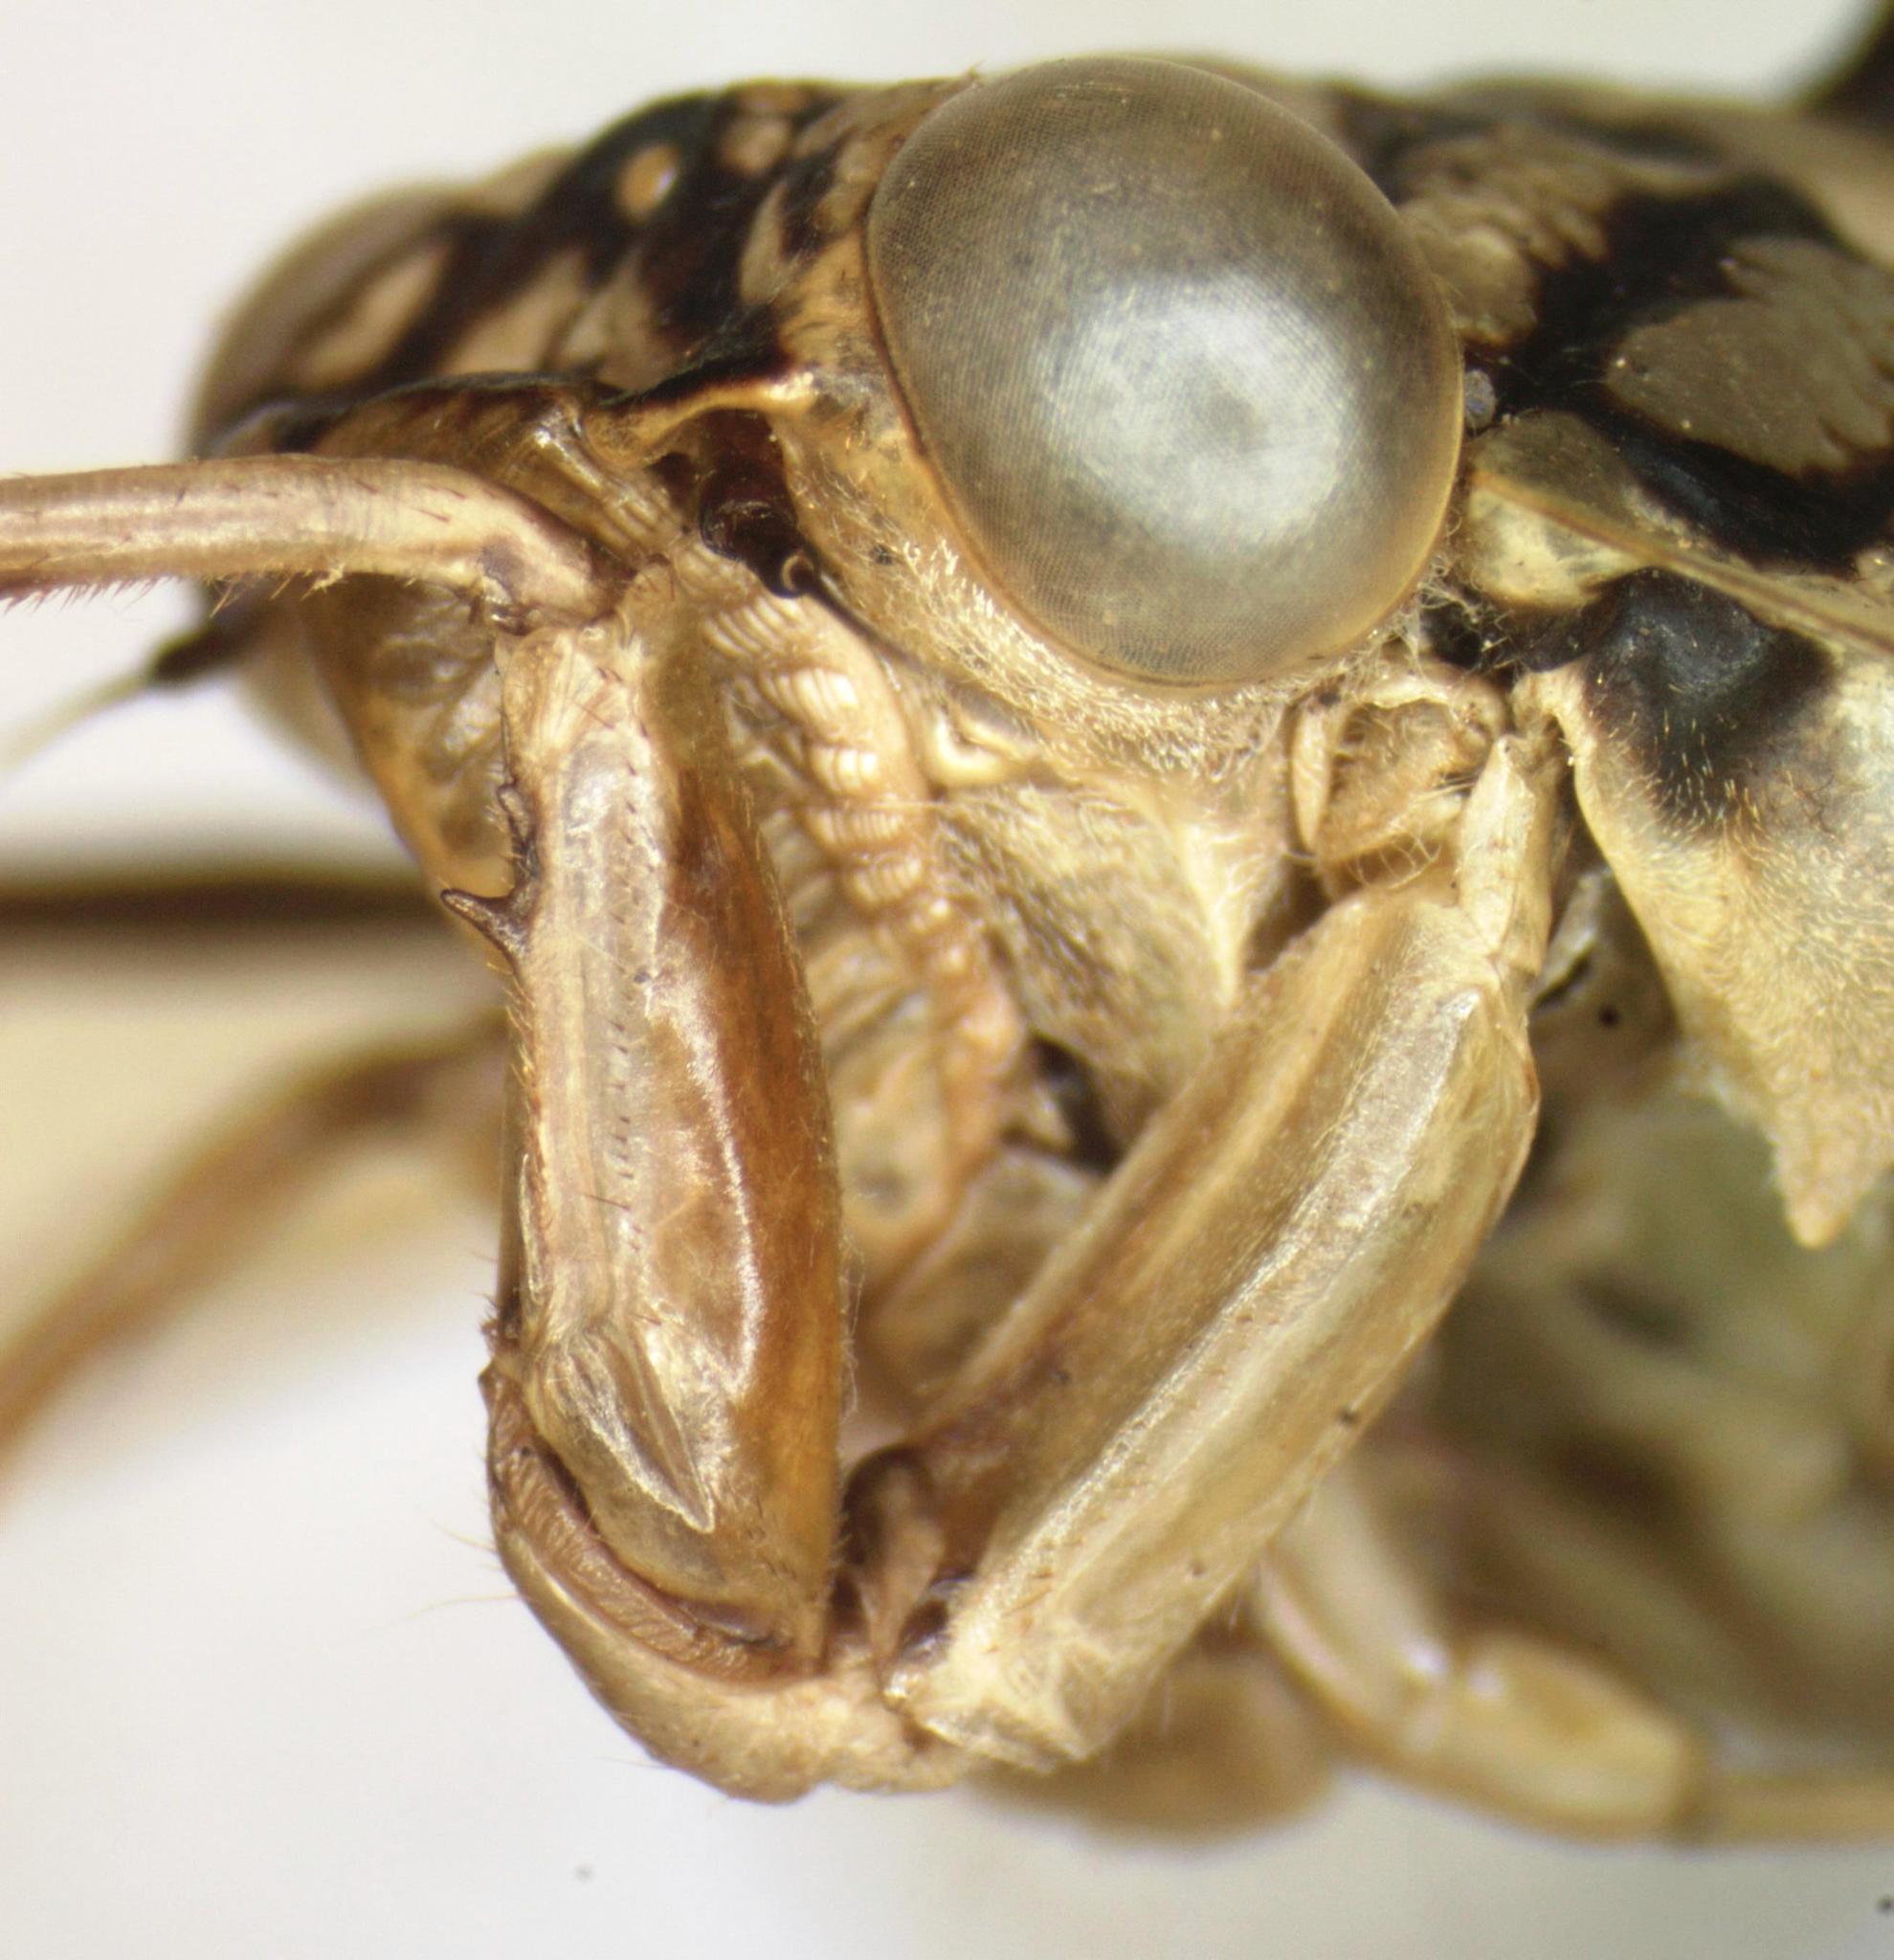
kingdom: Animalia
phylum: Arthropoda
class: Insecta
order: Hemiptera
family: Cicadidae
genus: Zammara
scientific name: Zammara smaragdula
